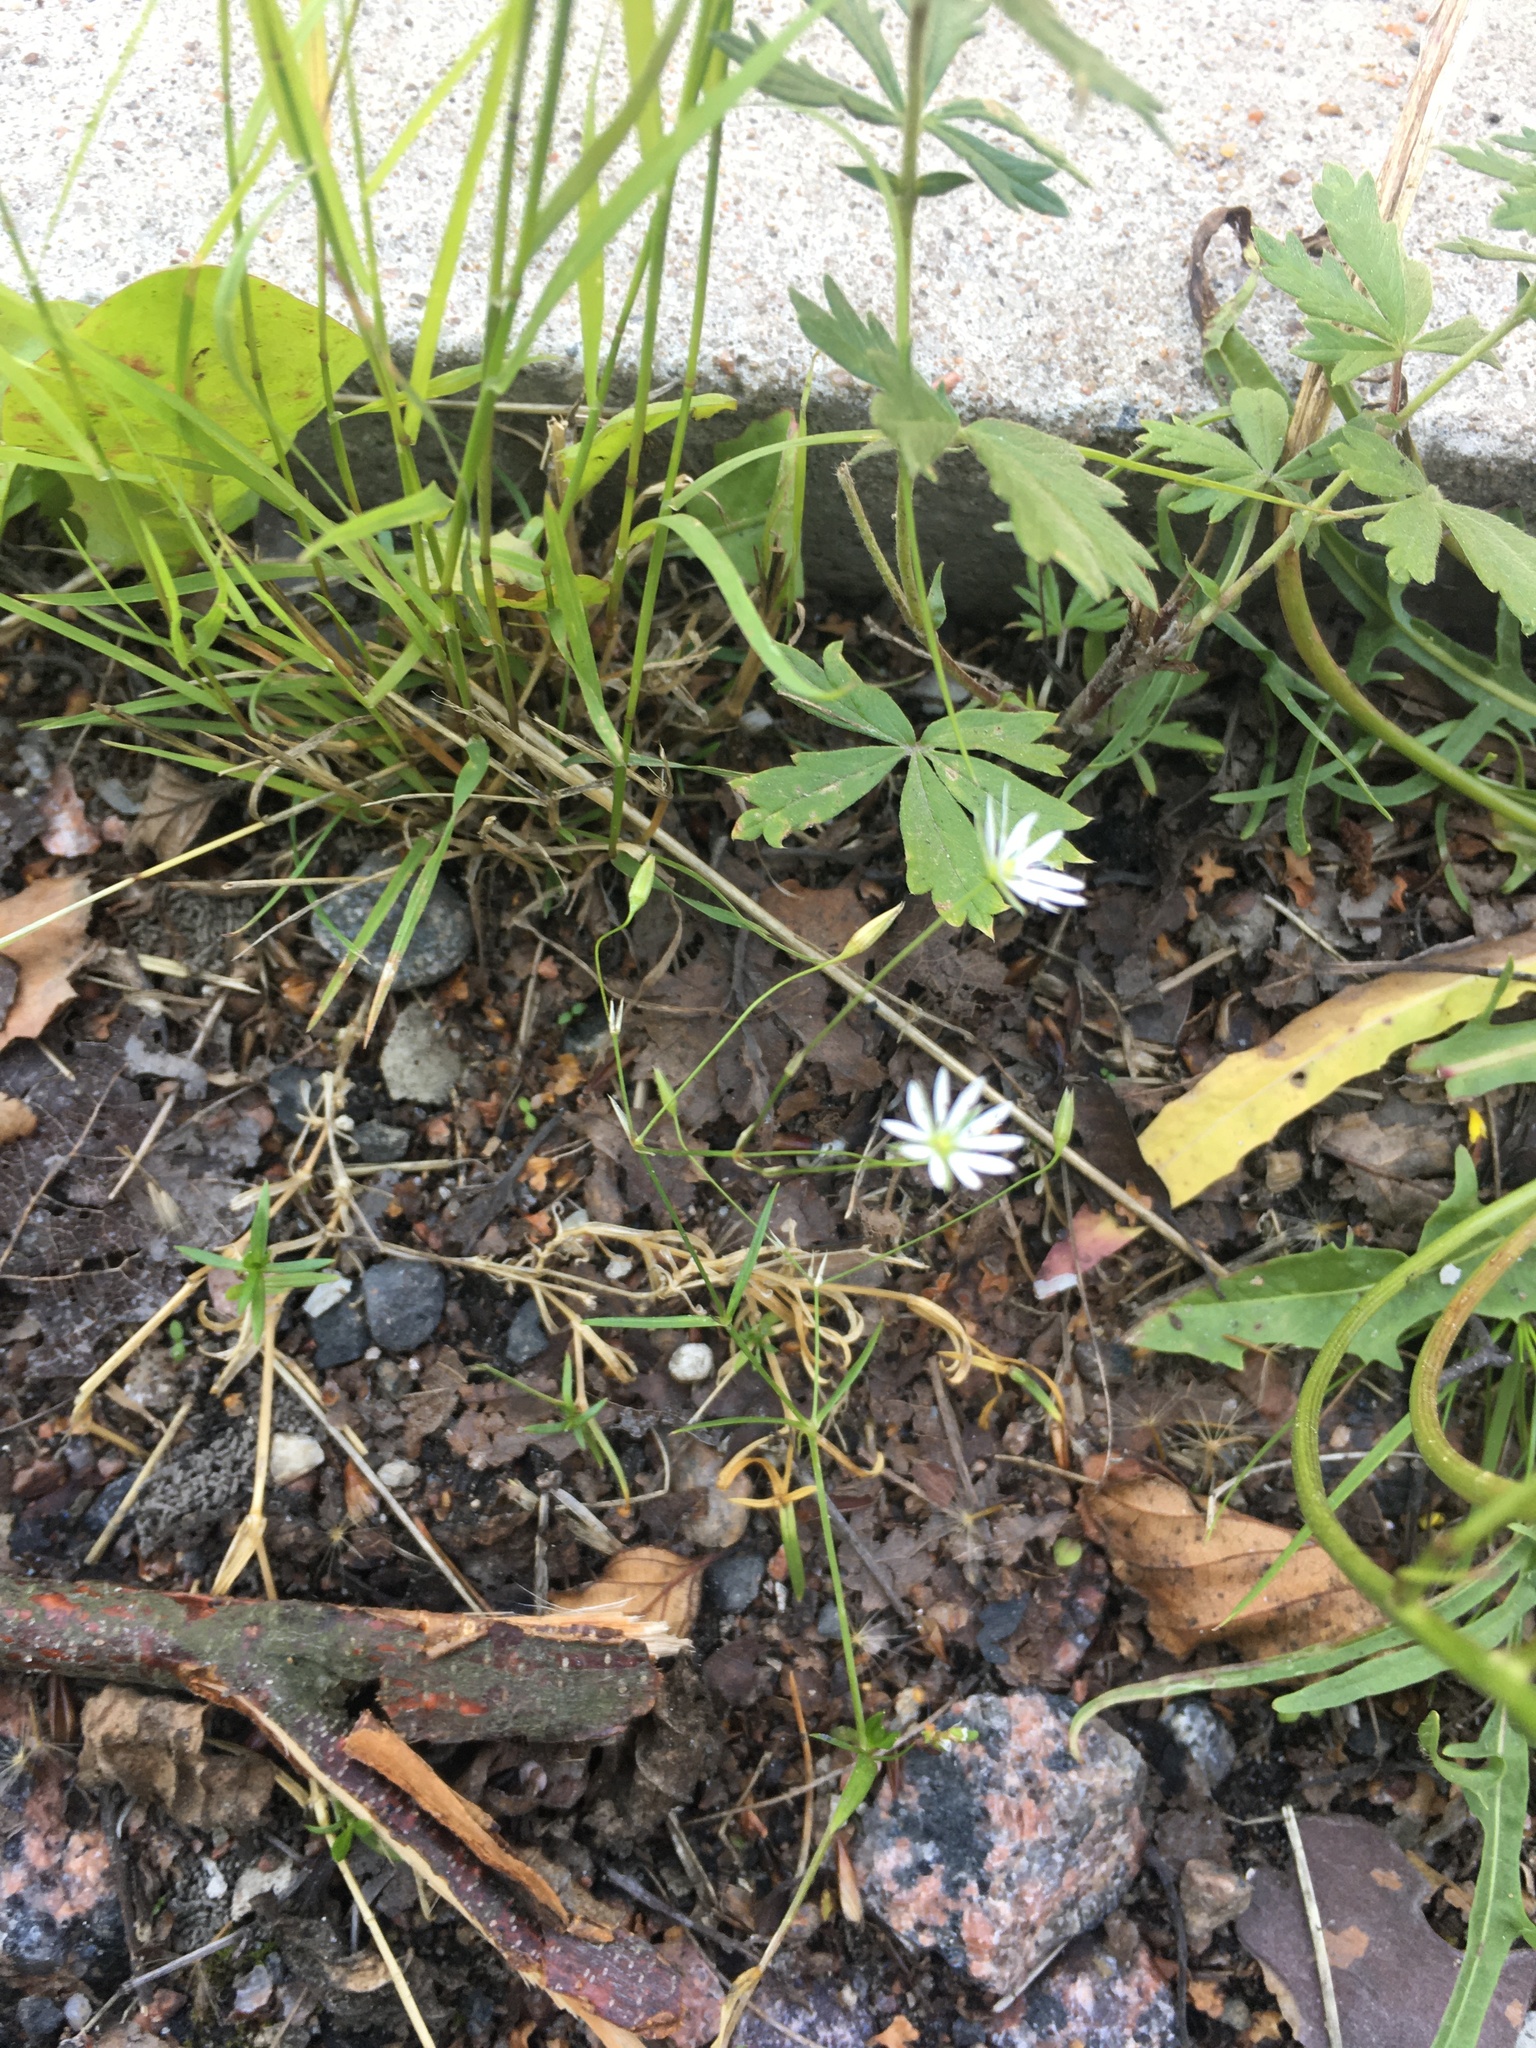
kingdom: Plantae
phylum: Tracheophyta
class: Magnoliopsida
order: Caryophyllales
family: Caryophyllaceae
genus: Stellaria
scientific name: Stellaria graminea
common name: Grass-like starwort
